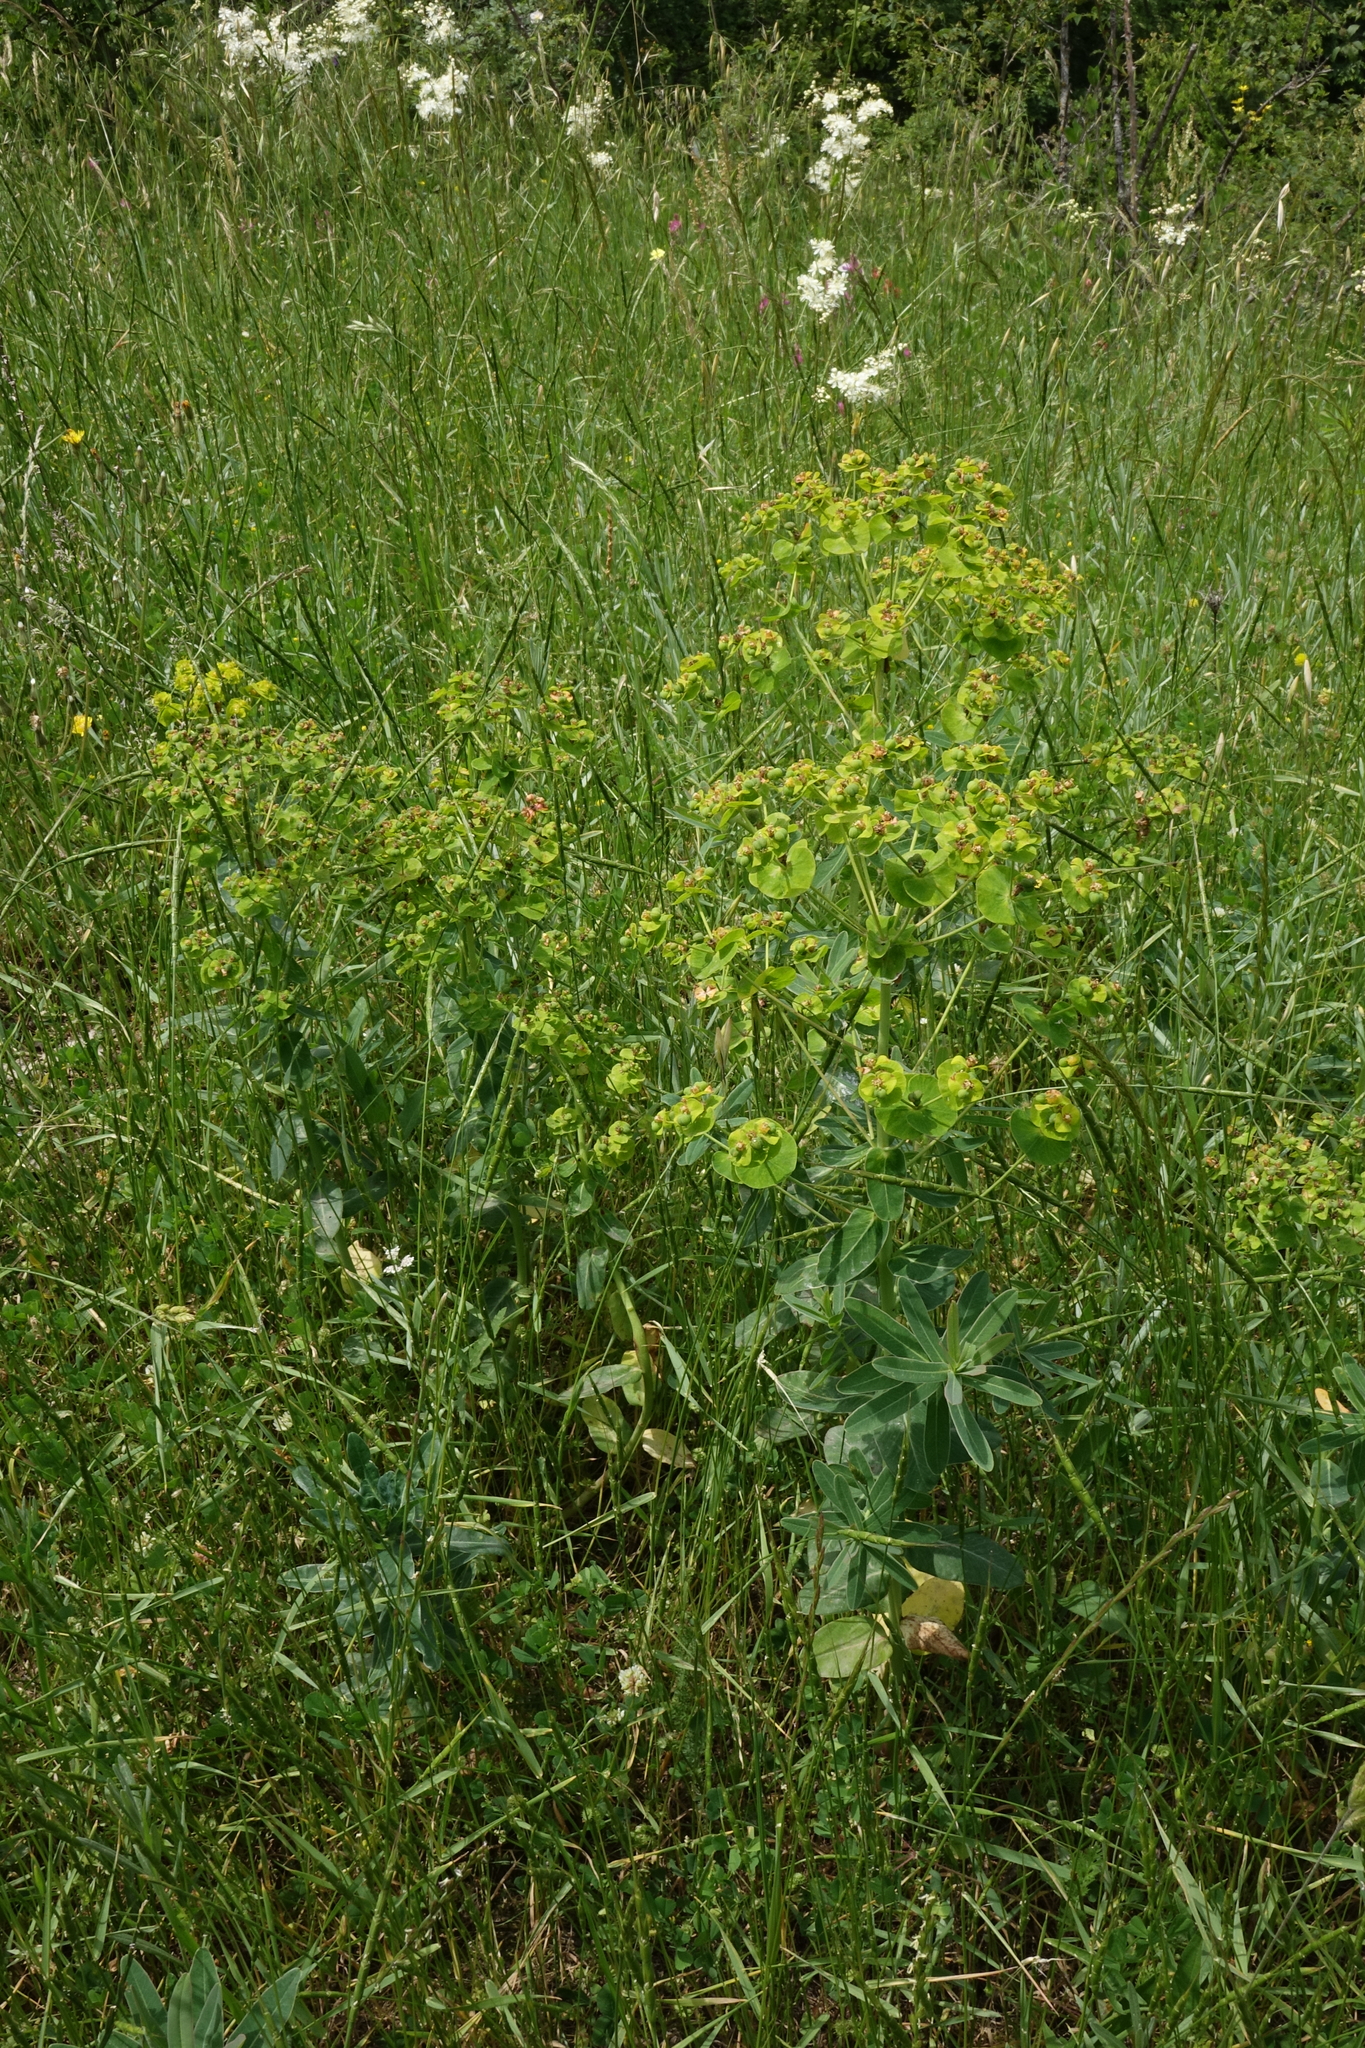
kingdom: Plantae
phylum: Tracheophyta
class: Magnoliopsida
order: Malpighiales
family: Euphorbiaceae
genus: Euphorbia
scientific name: Euphorbia iberica
